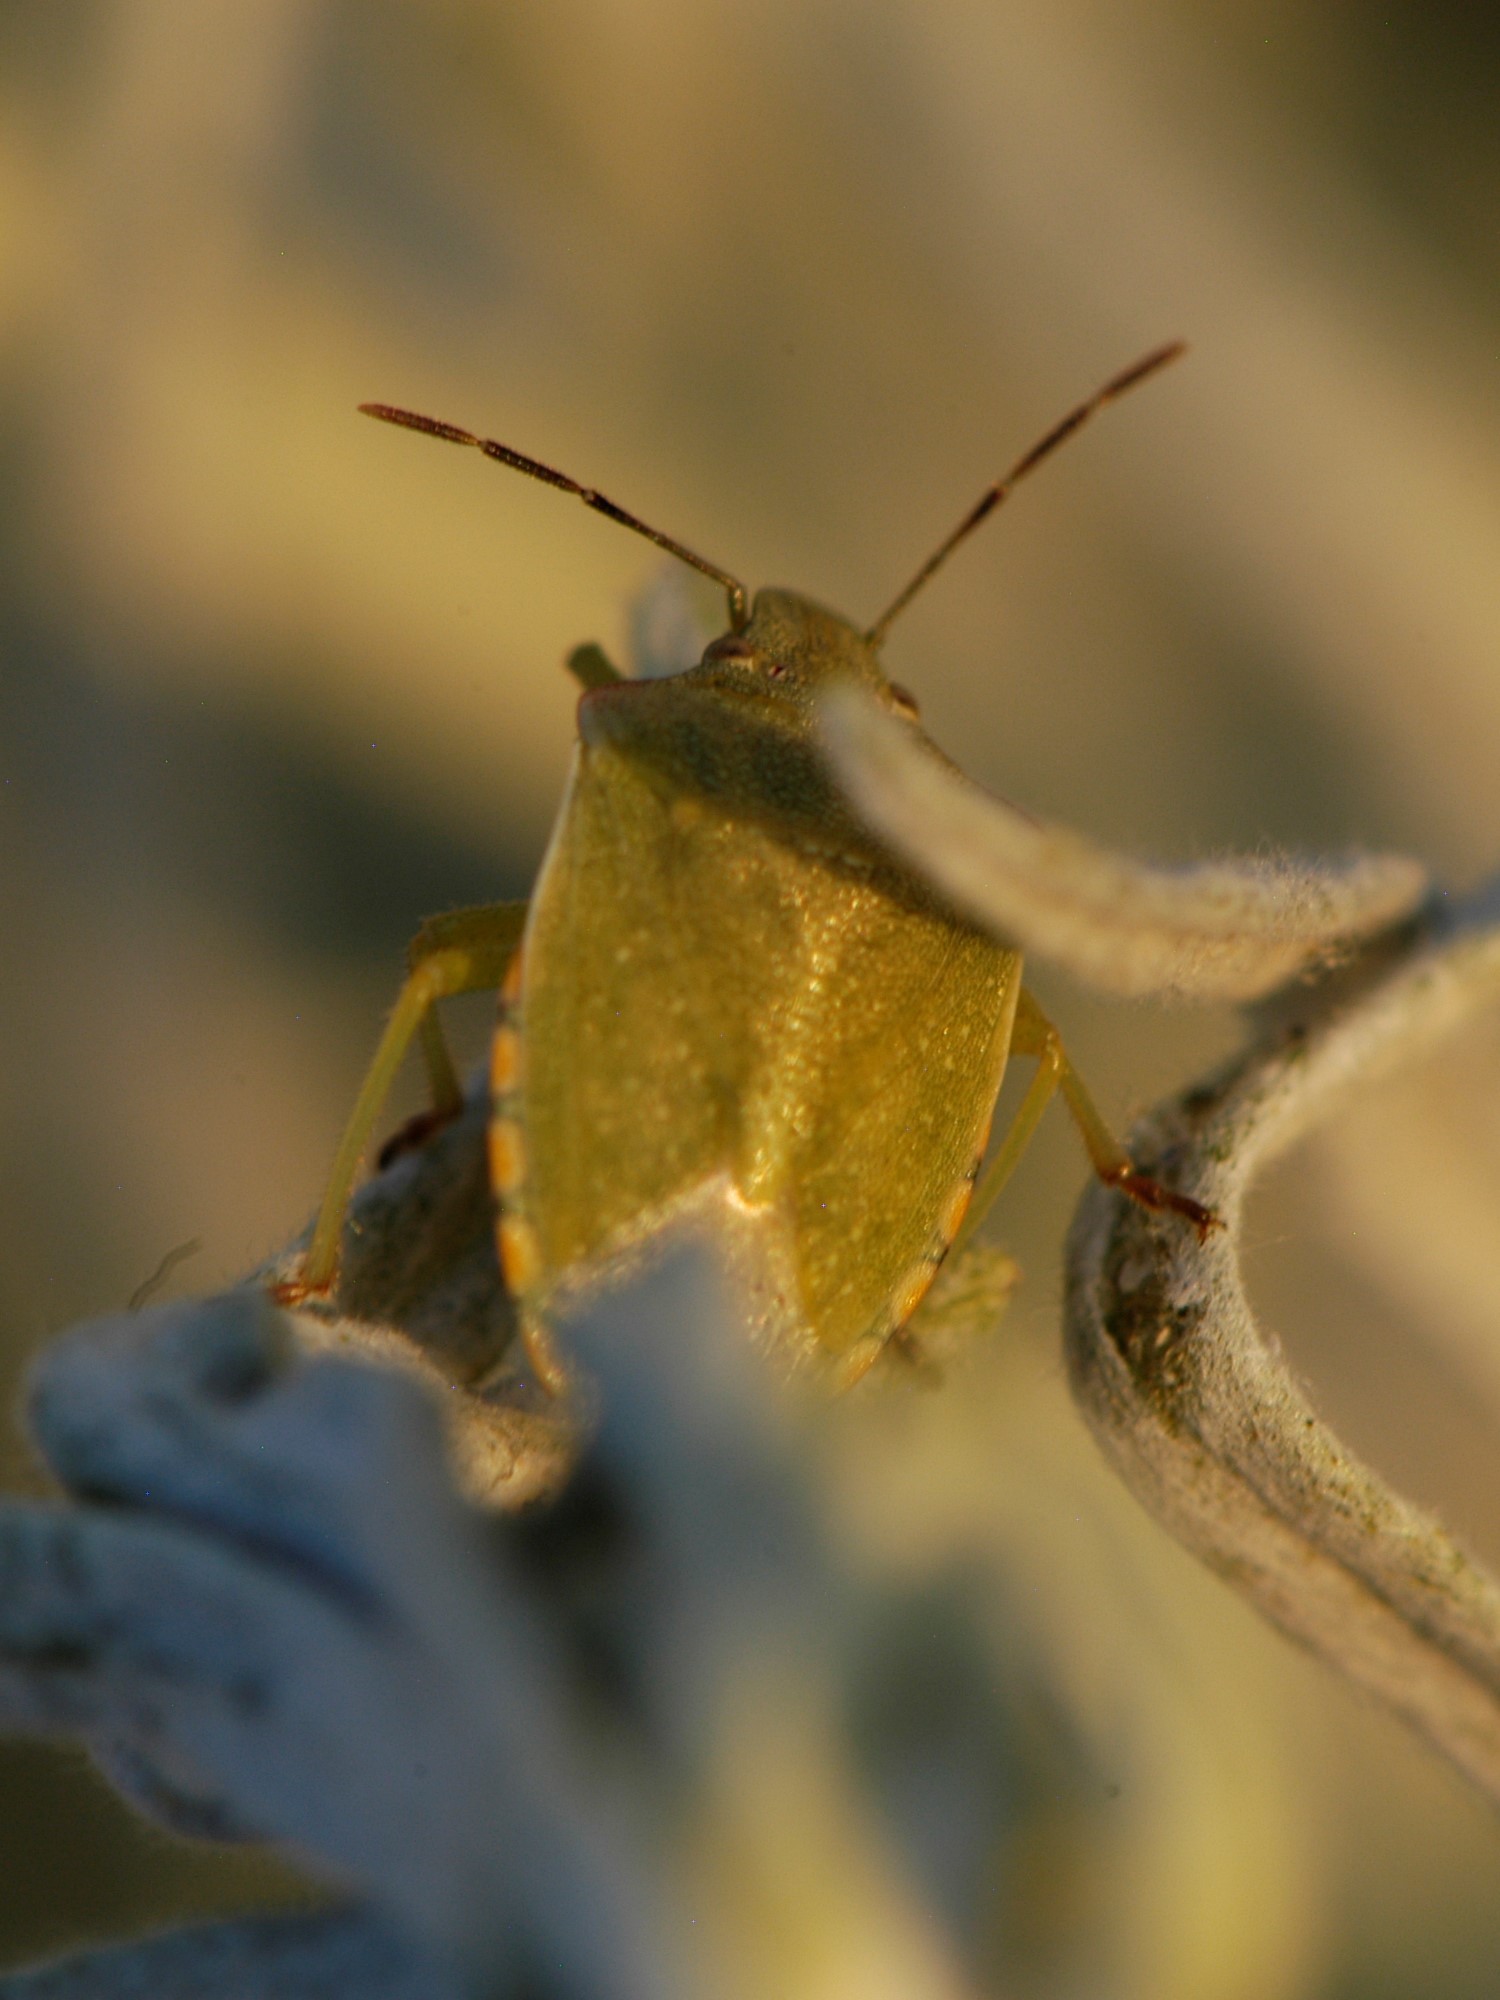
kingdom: Animalia
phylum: Arthropoda
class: Insecta
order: Hemiptera
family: Pentatomidae
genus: Thyanta
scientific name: Thyanta accerra
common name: Stink bug
